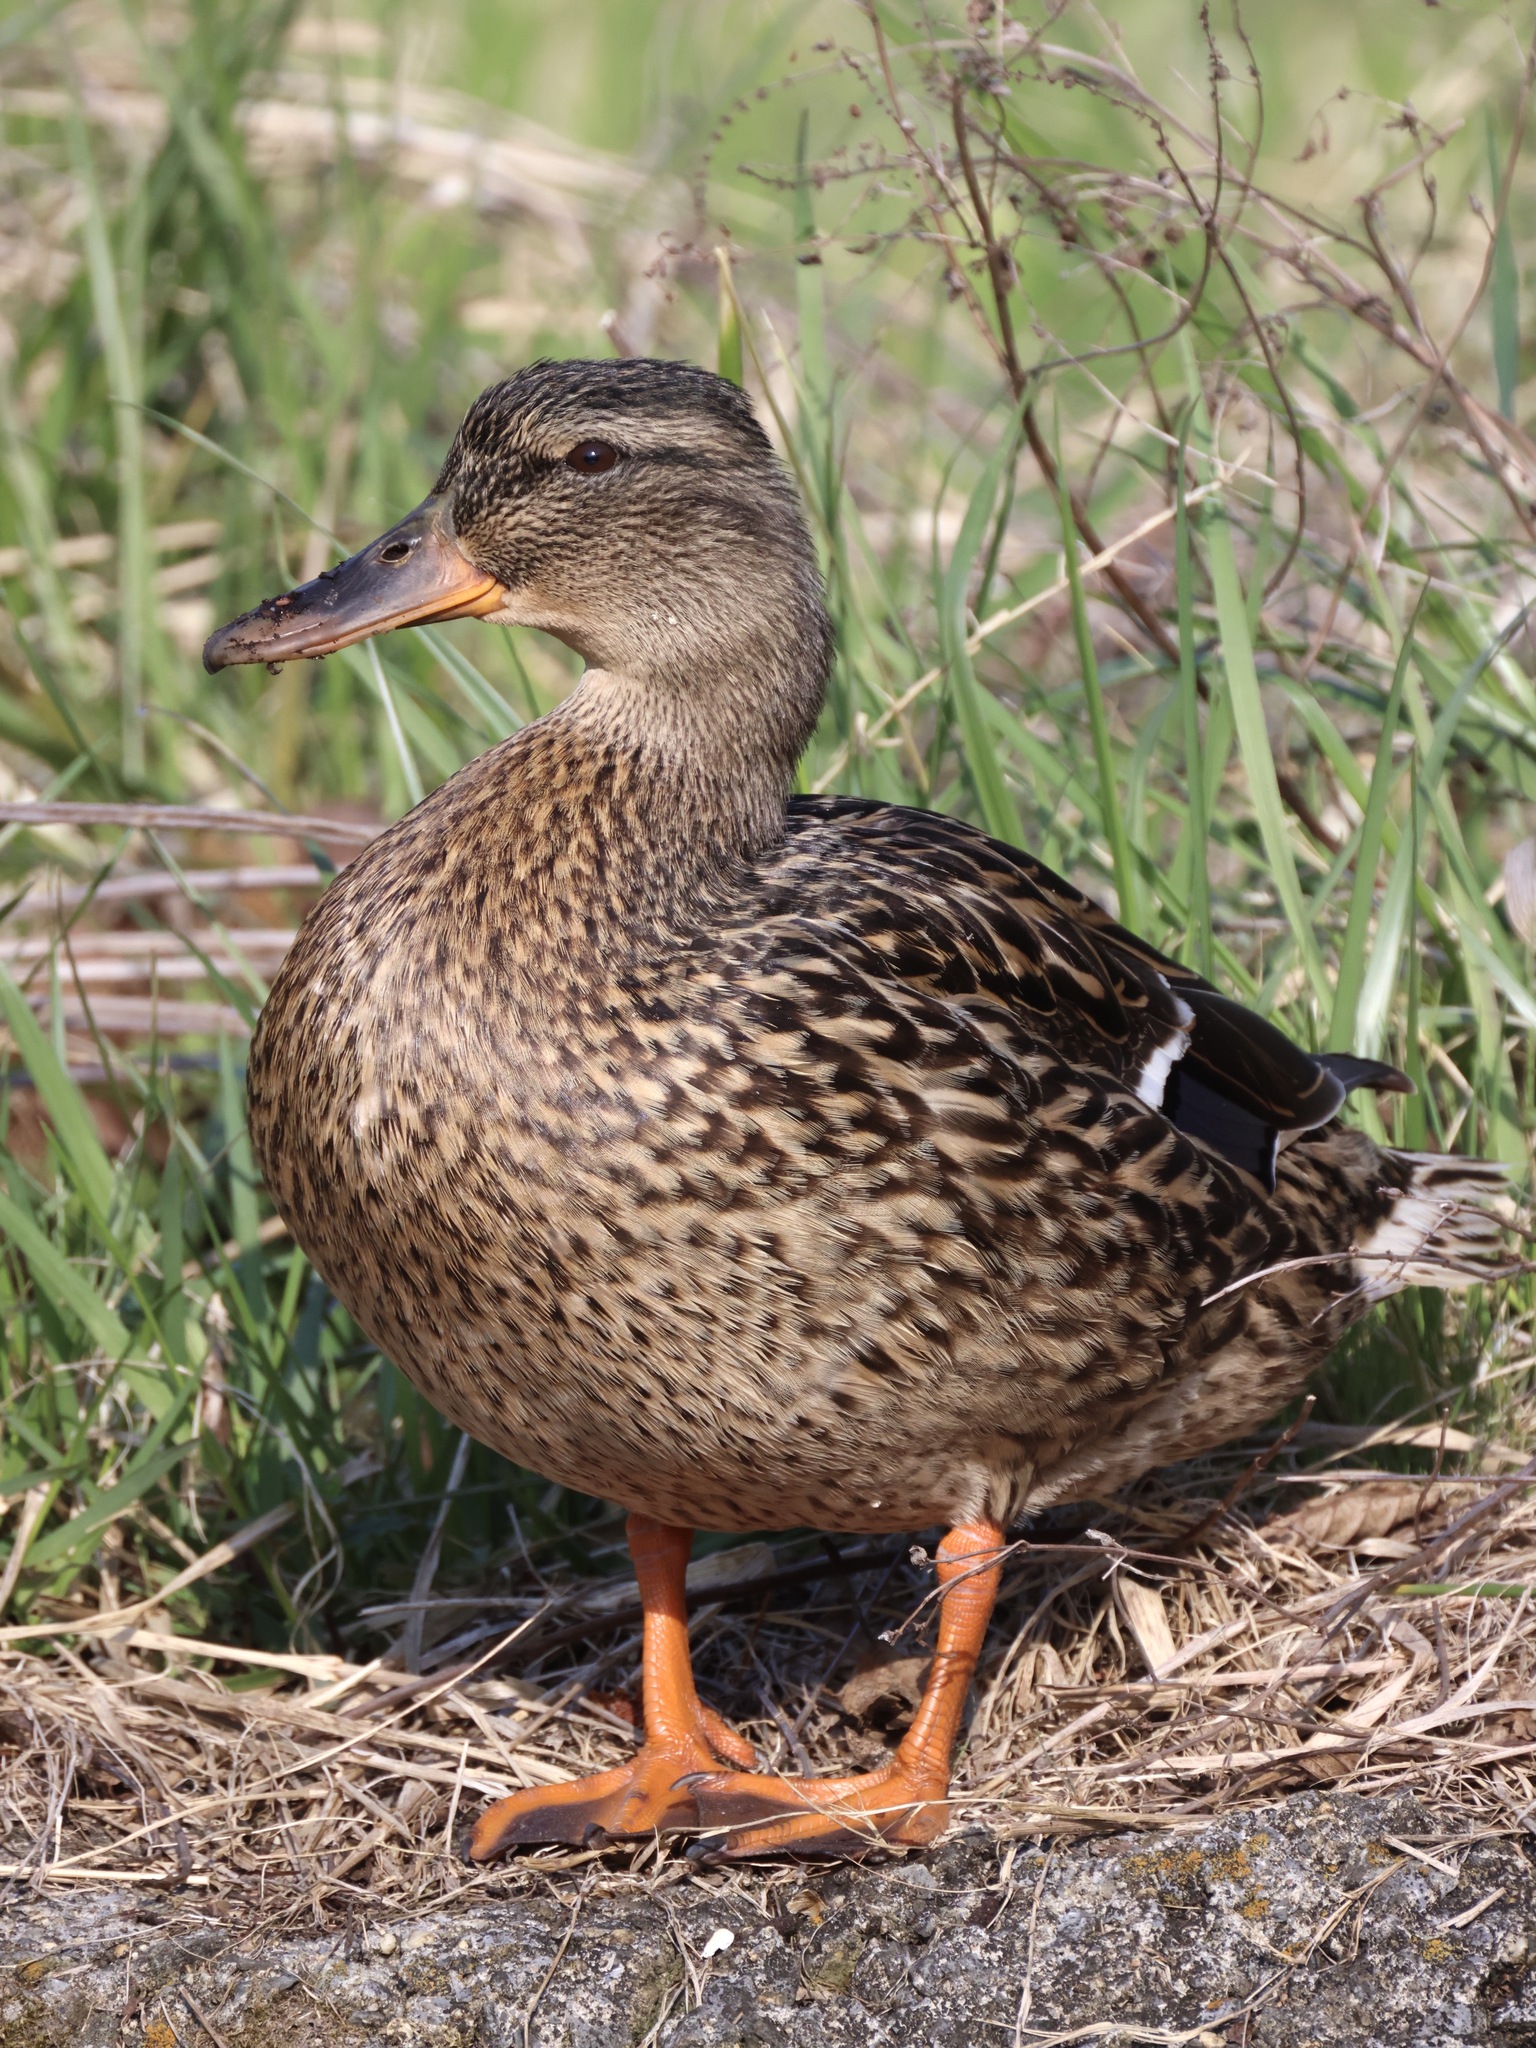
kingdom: Animalia
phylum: Chordata
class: Aves
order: Anseriformes
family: Anatidae
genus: Anas
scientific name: Anas platyrhynchos
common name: Mallard
